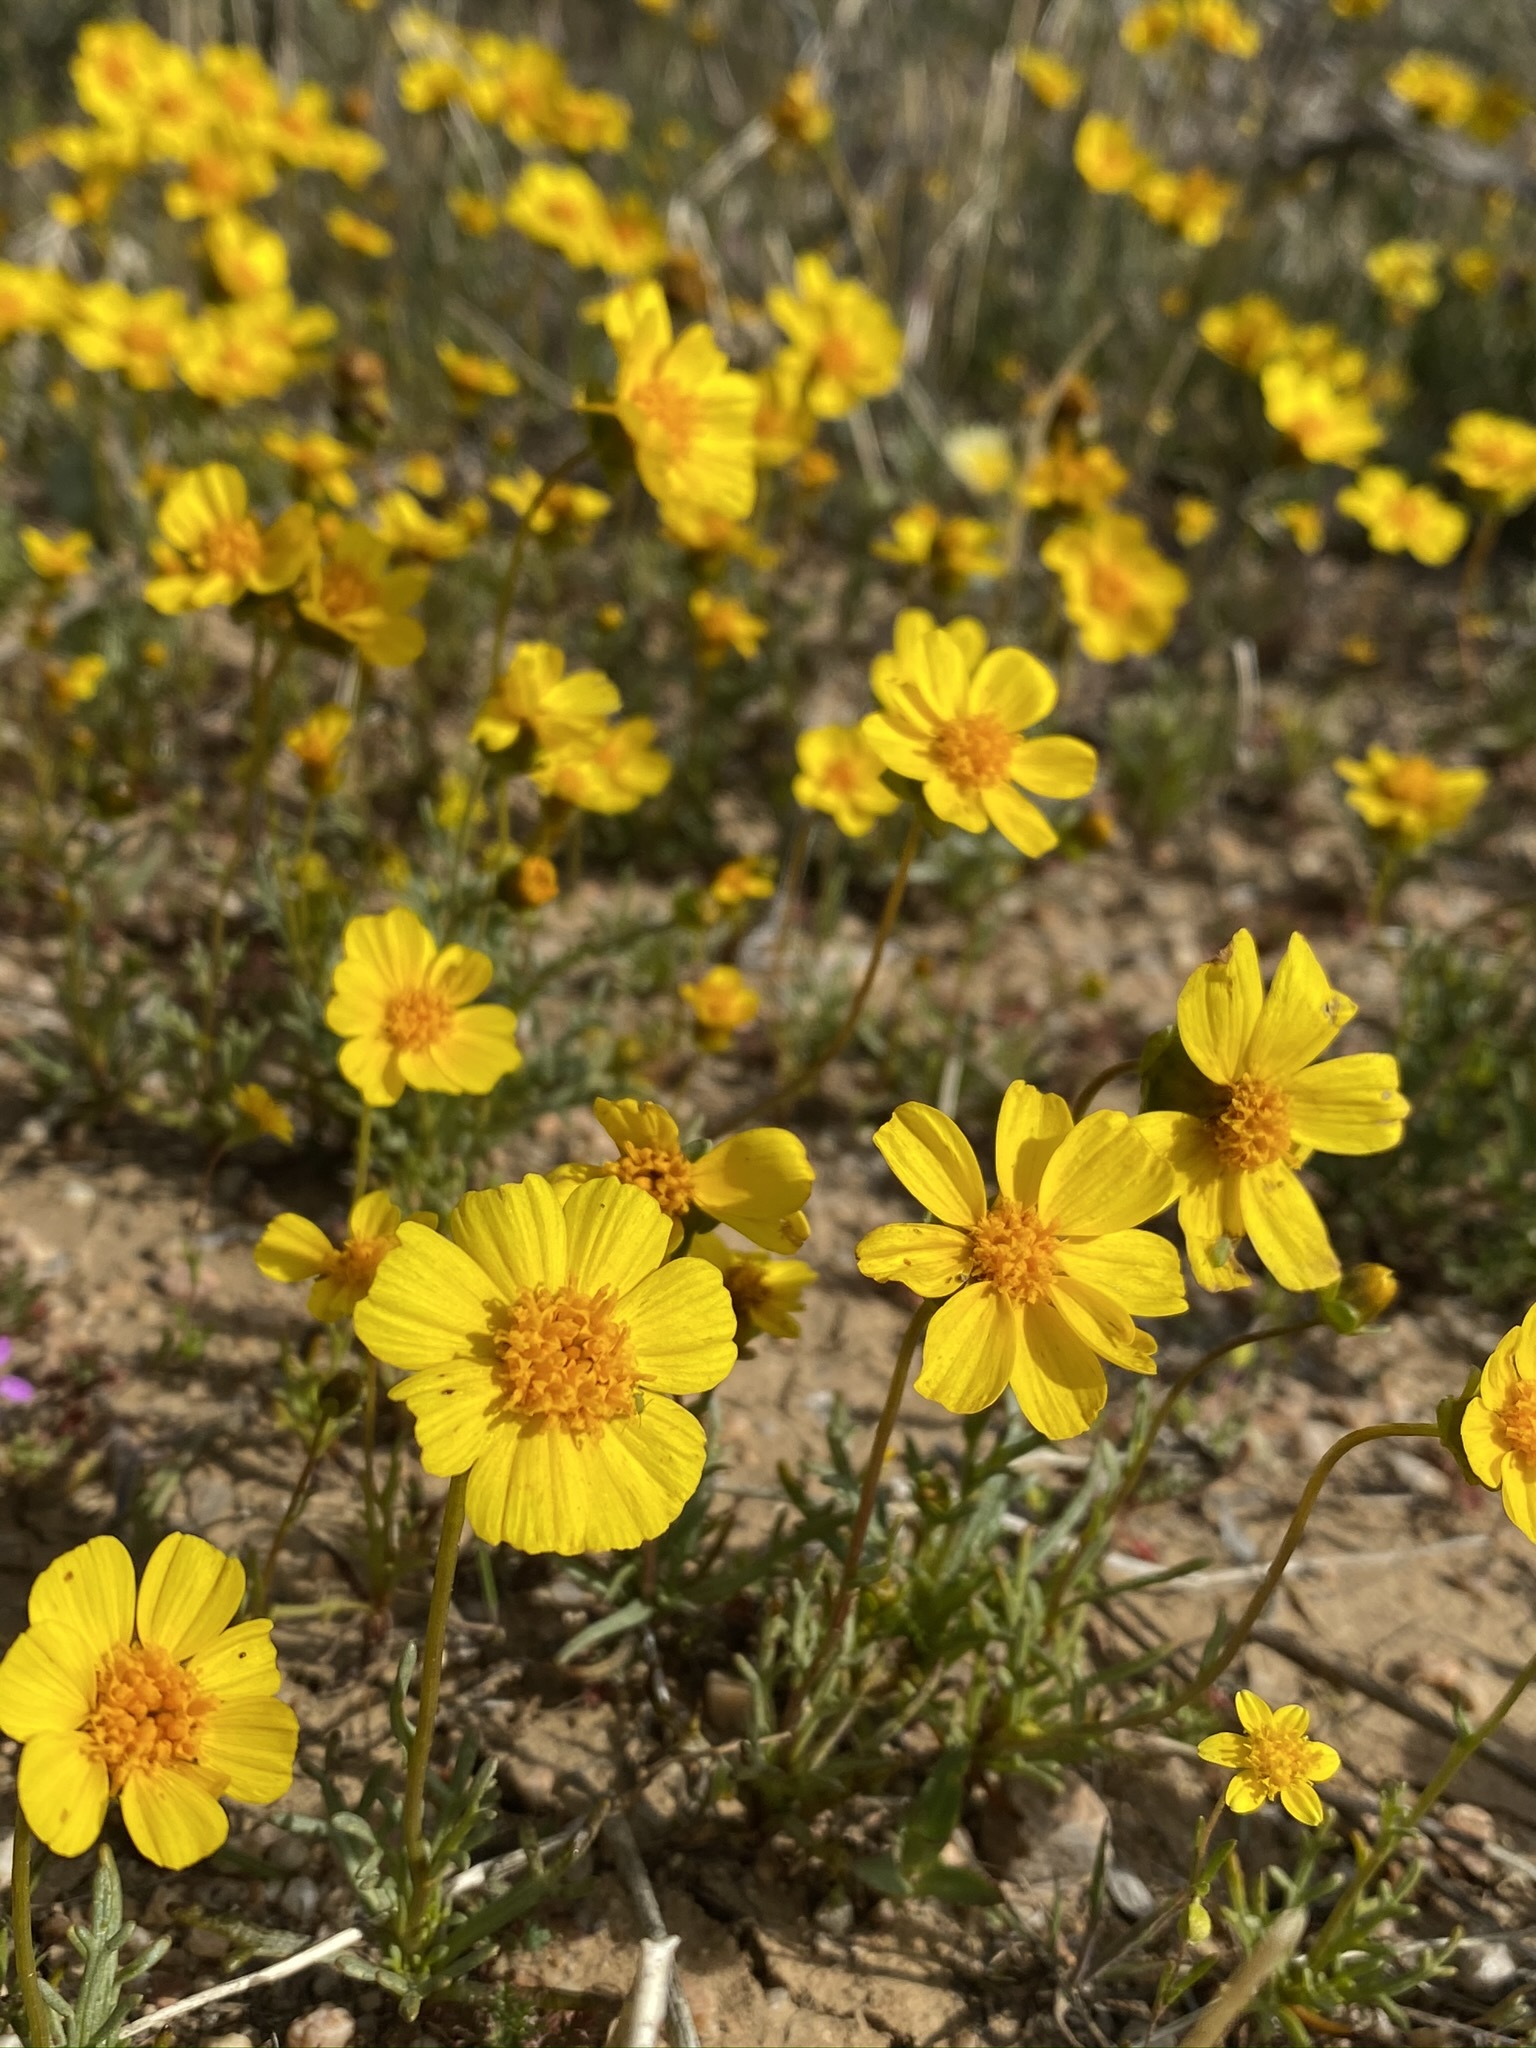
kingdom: Plantae
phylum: Tracheophyta
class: Magnoliopsida
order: Asterales
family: Asteraceae
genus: Coreopsis
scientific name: Coreopsis calliopsidea
